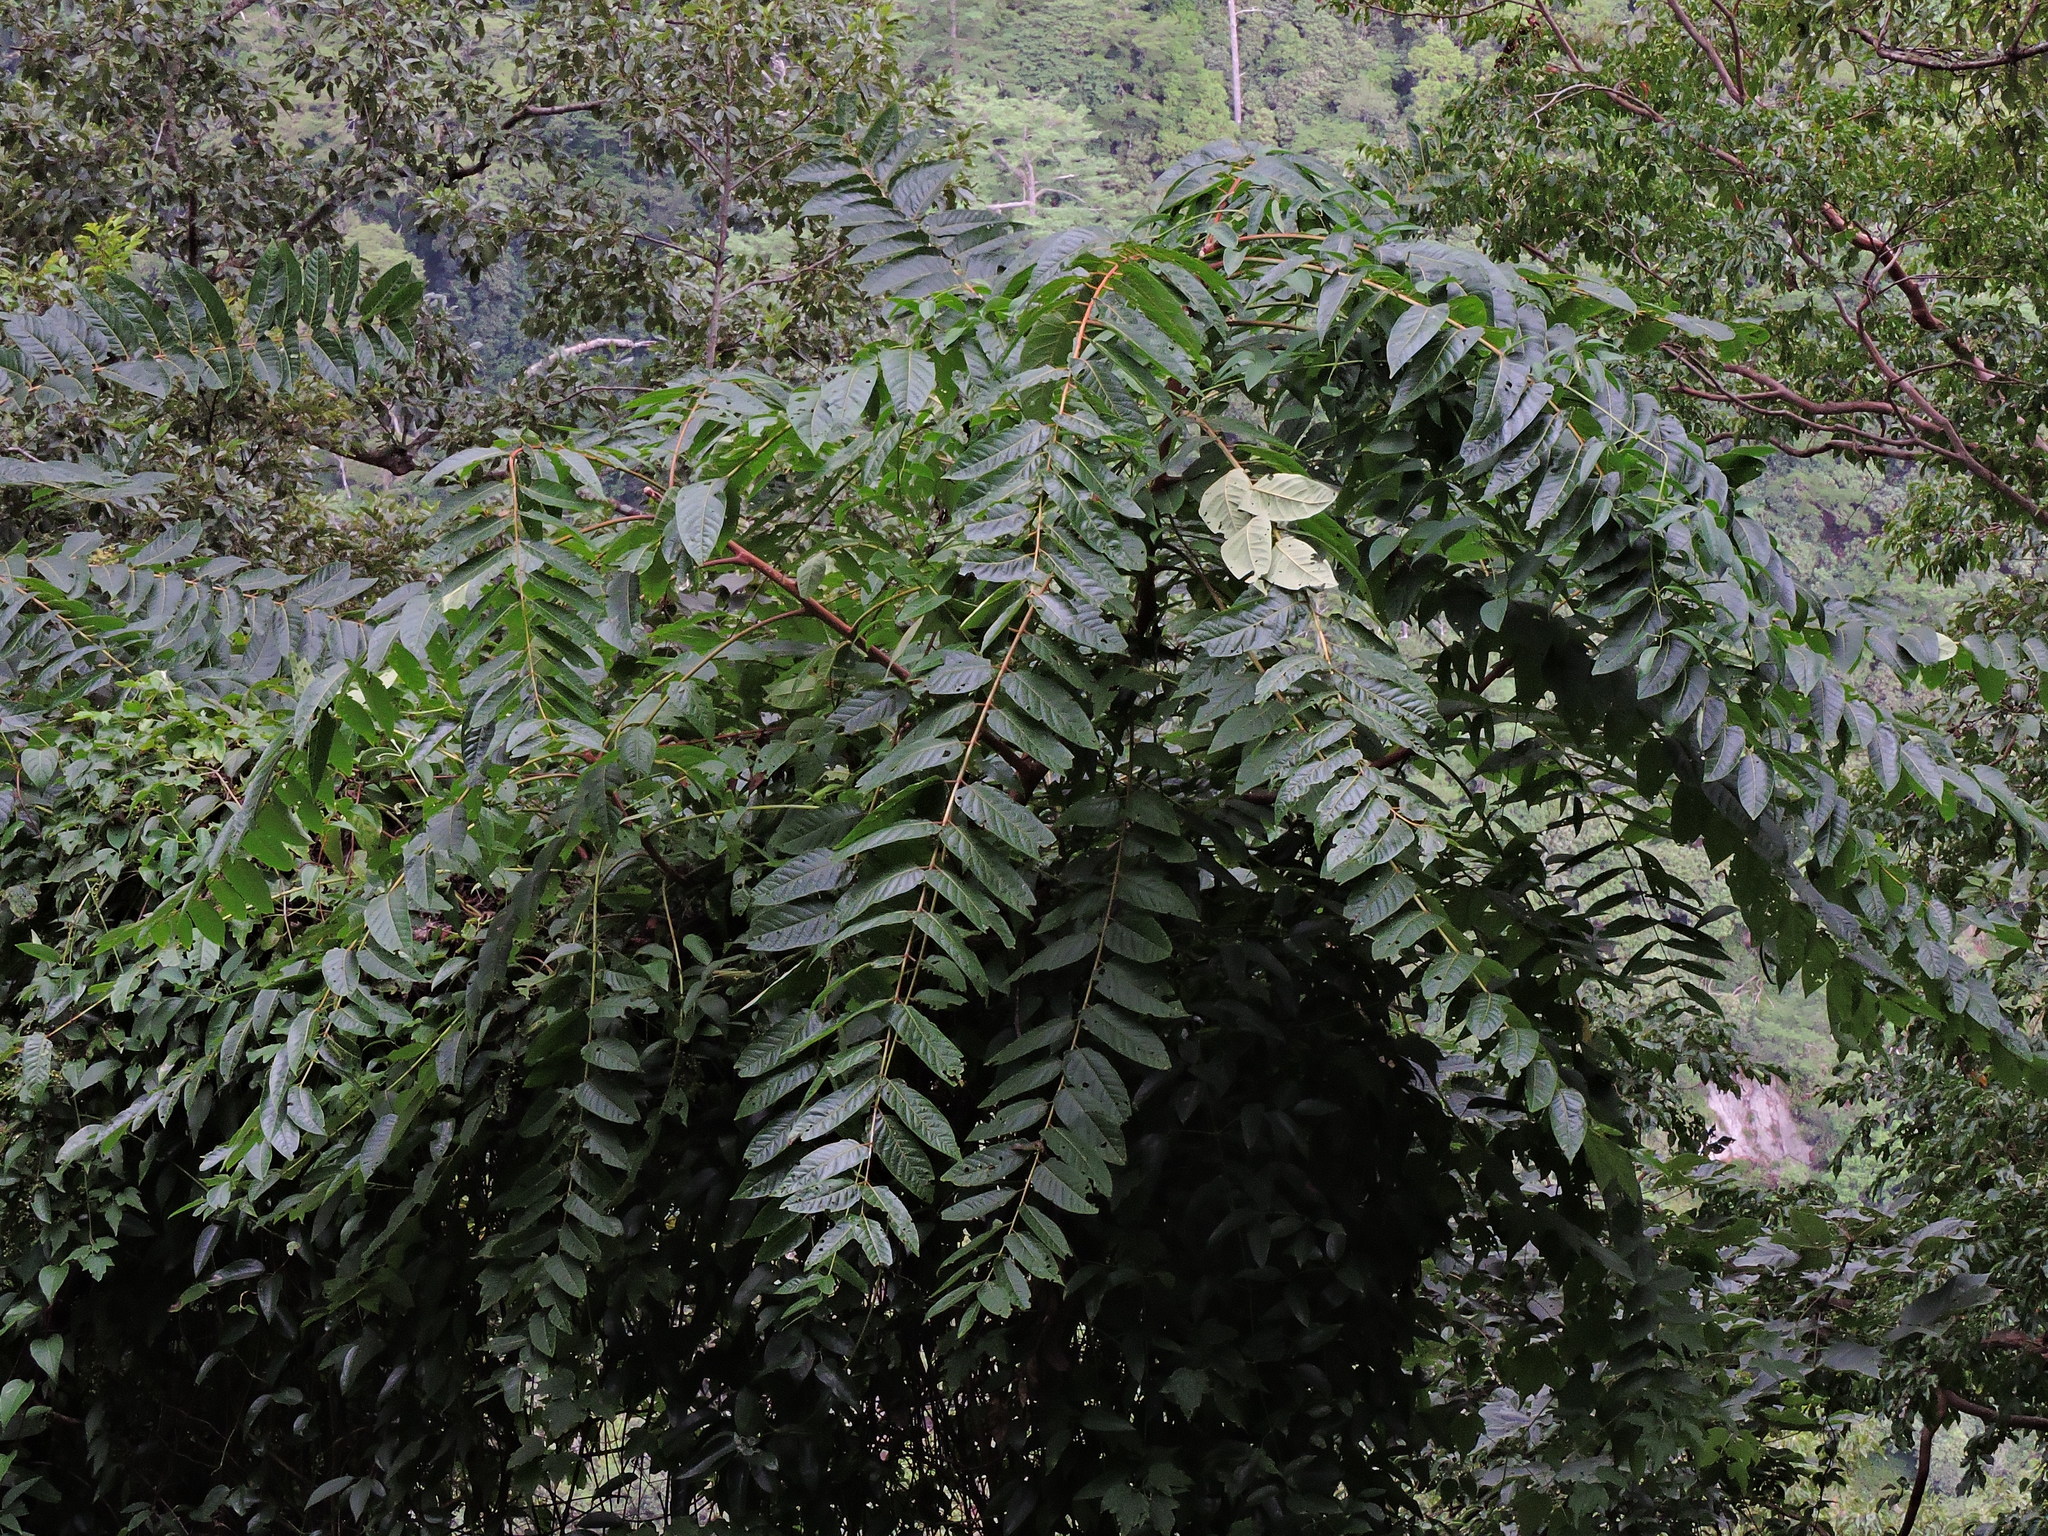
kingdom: Plantae
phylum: Tracheophyta
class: Magnoliopsida
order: Sapindales
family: Simaroubaceae
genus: Ailanthus
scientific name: Ailanthus altissima
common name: Tree-of-heaven
